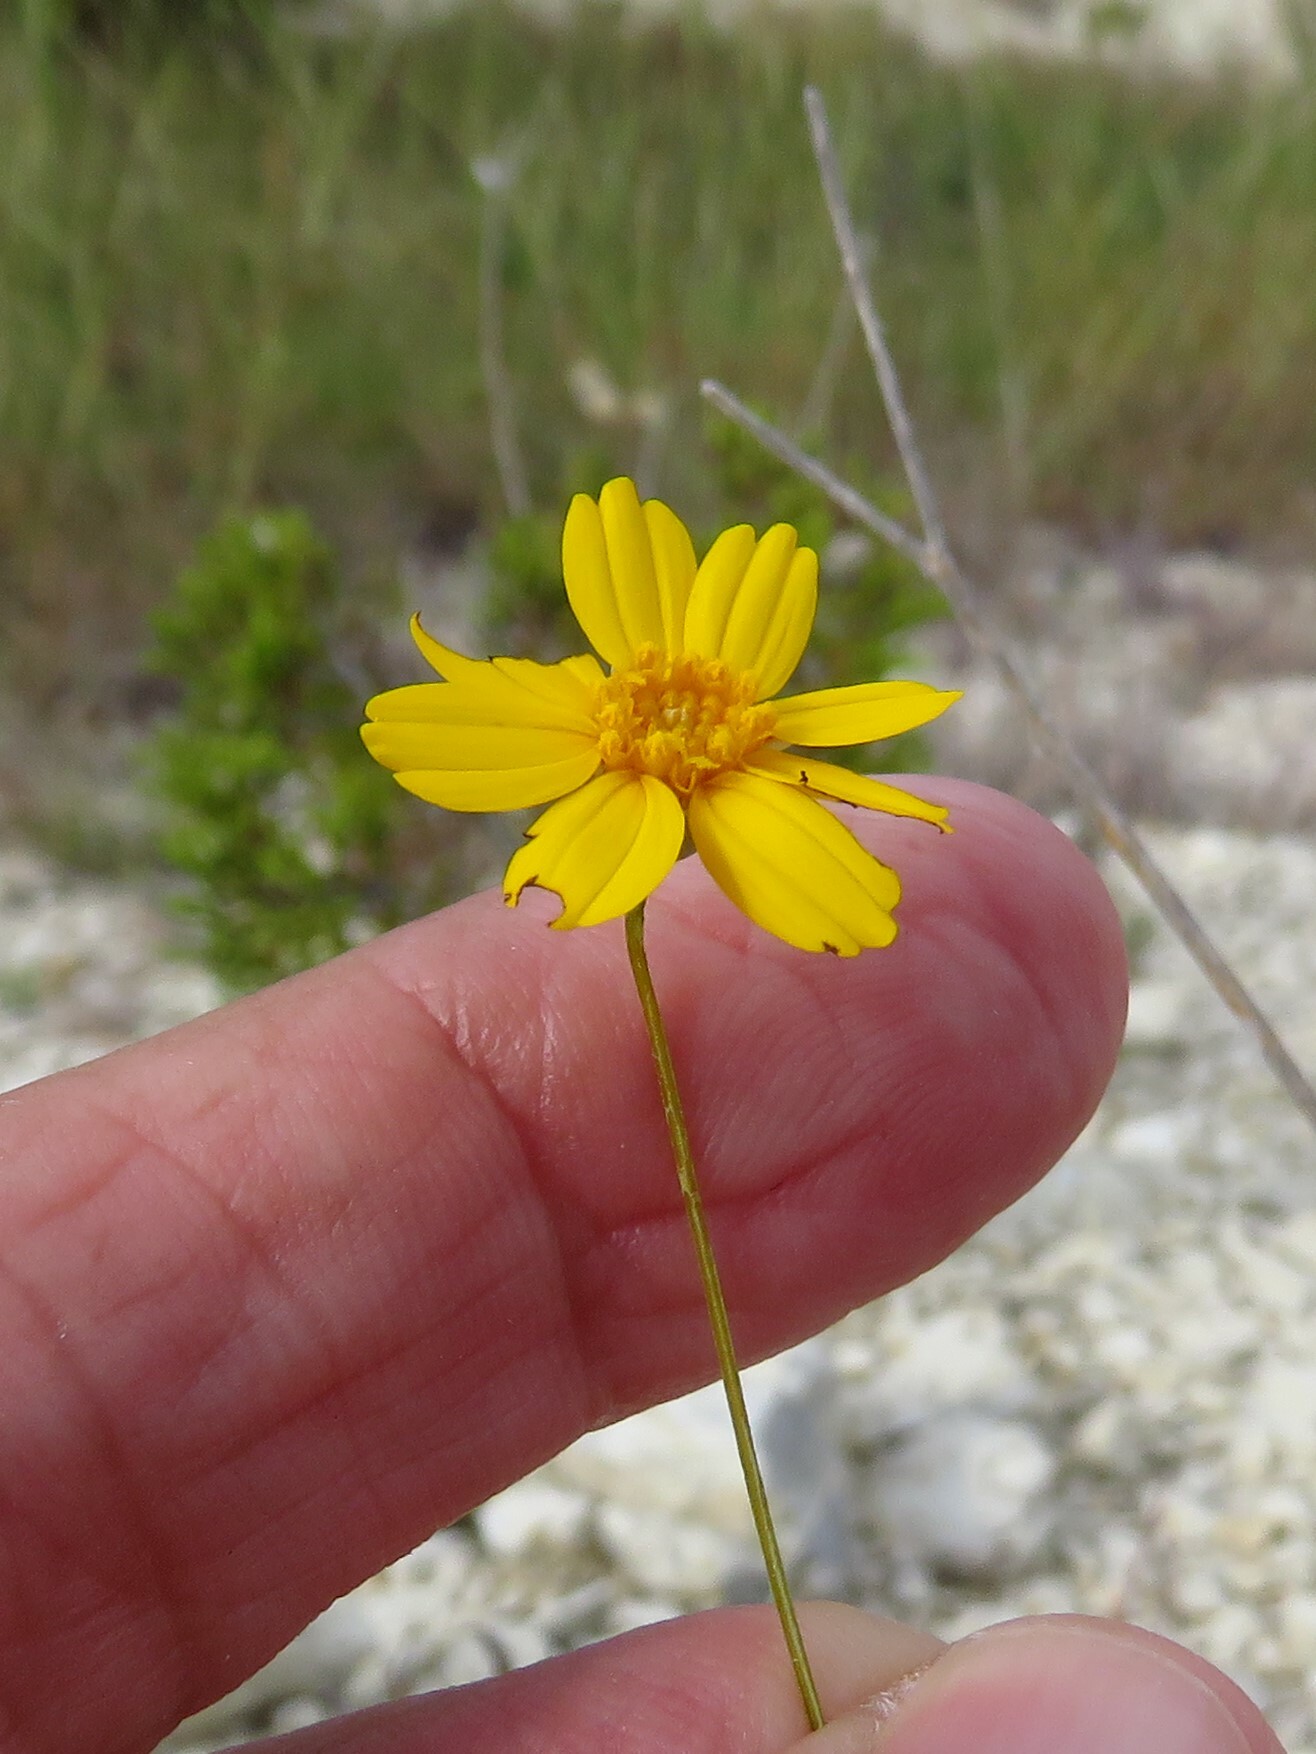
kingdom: Plantae
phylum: Tracheophyta
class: Magnoliopsida
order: Asterales
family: Asteraceae
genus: Thelesperma
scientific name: Thelesperma simplicifolium
